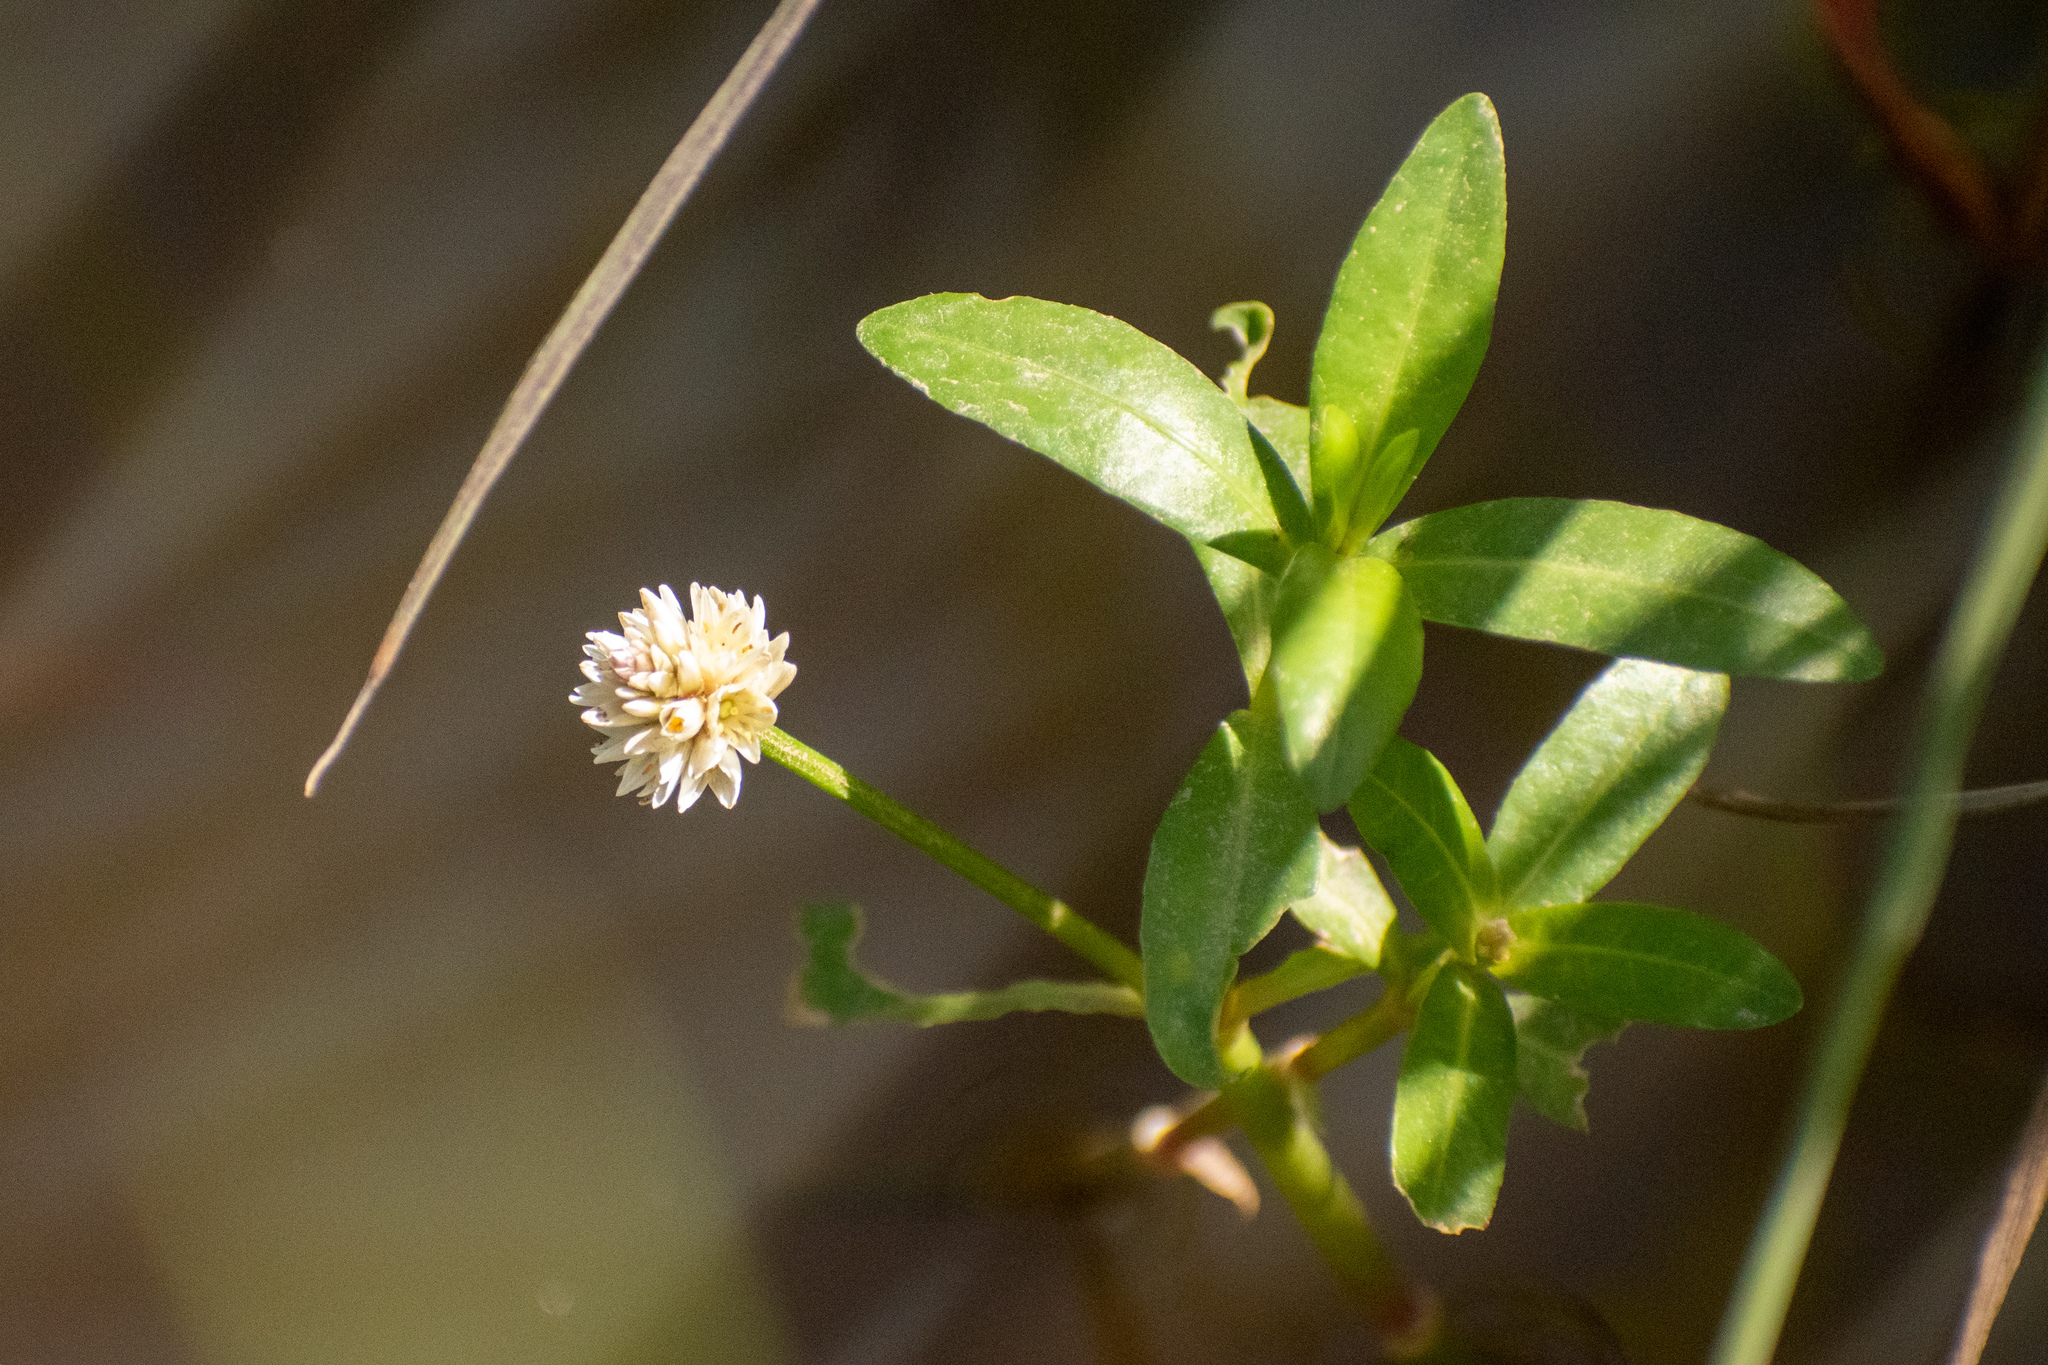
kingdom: Plantae
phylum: Tracheophyta
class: Magnoliopsida
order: Caryophyllales
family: Amaranthaceae
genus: Alternanthera
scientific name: Alternanthera philoxeroides
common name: Alligatorweed
